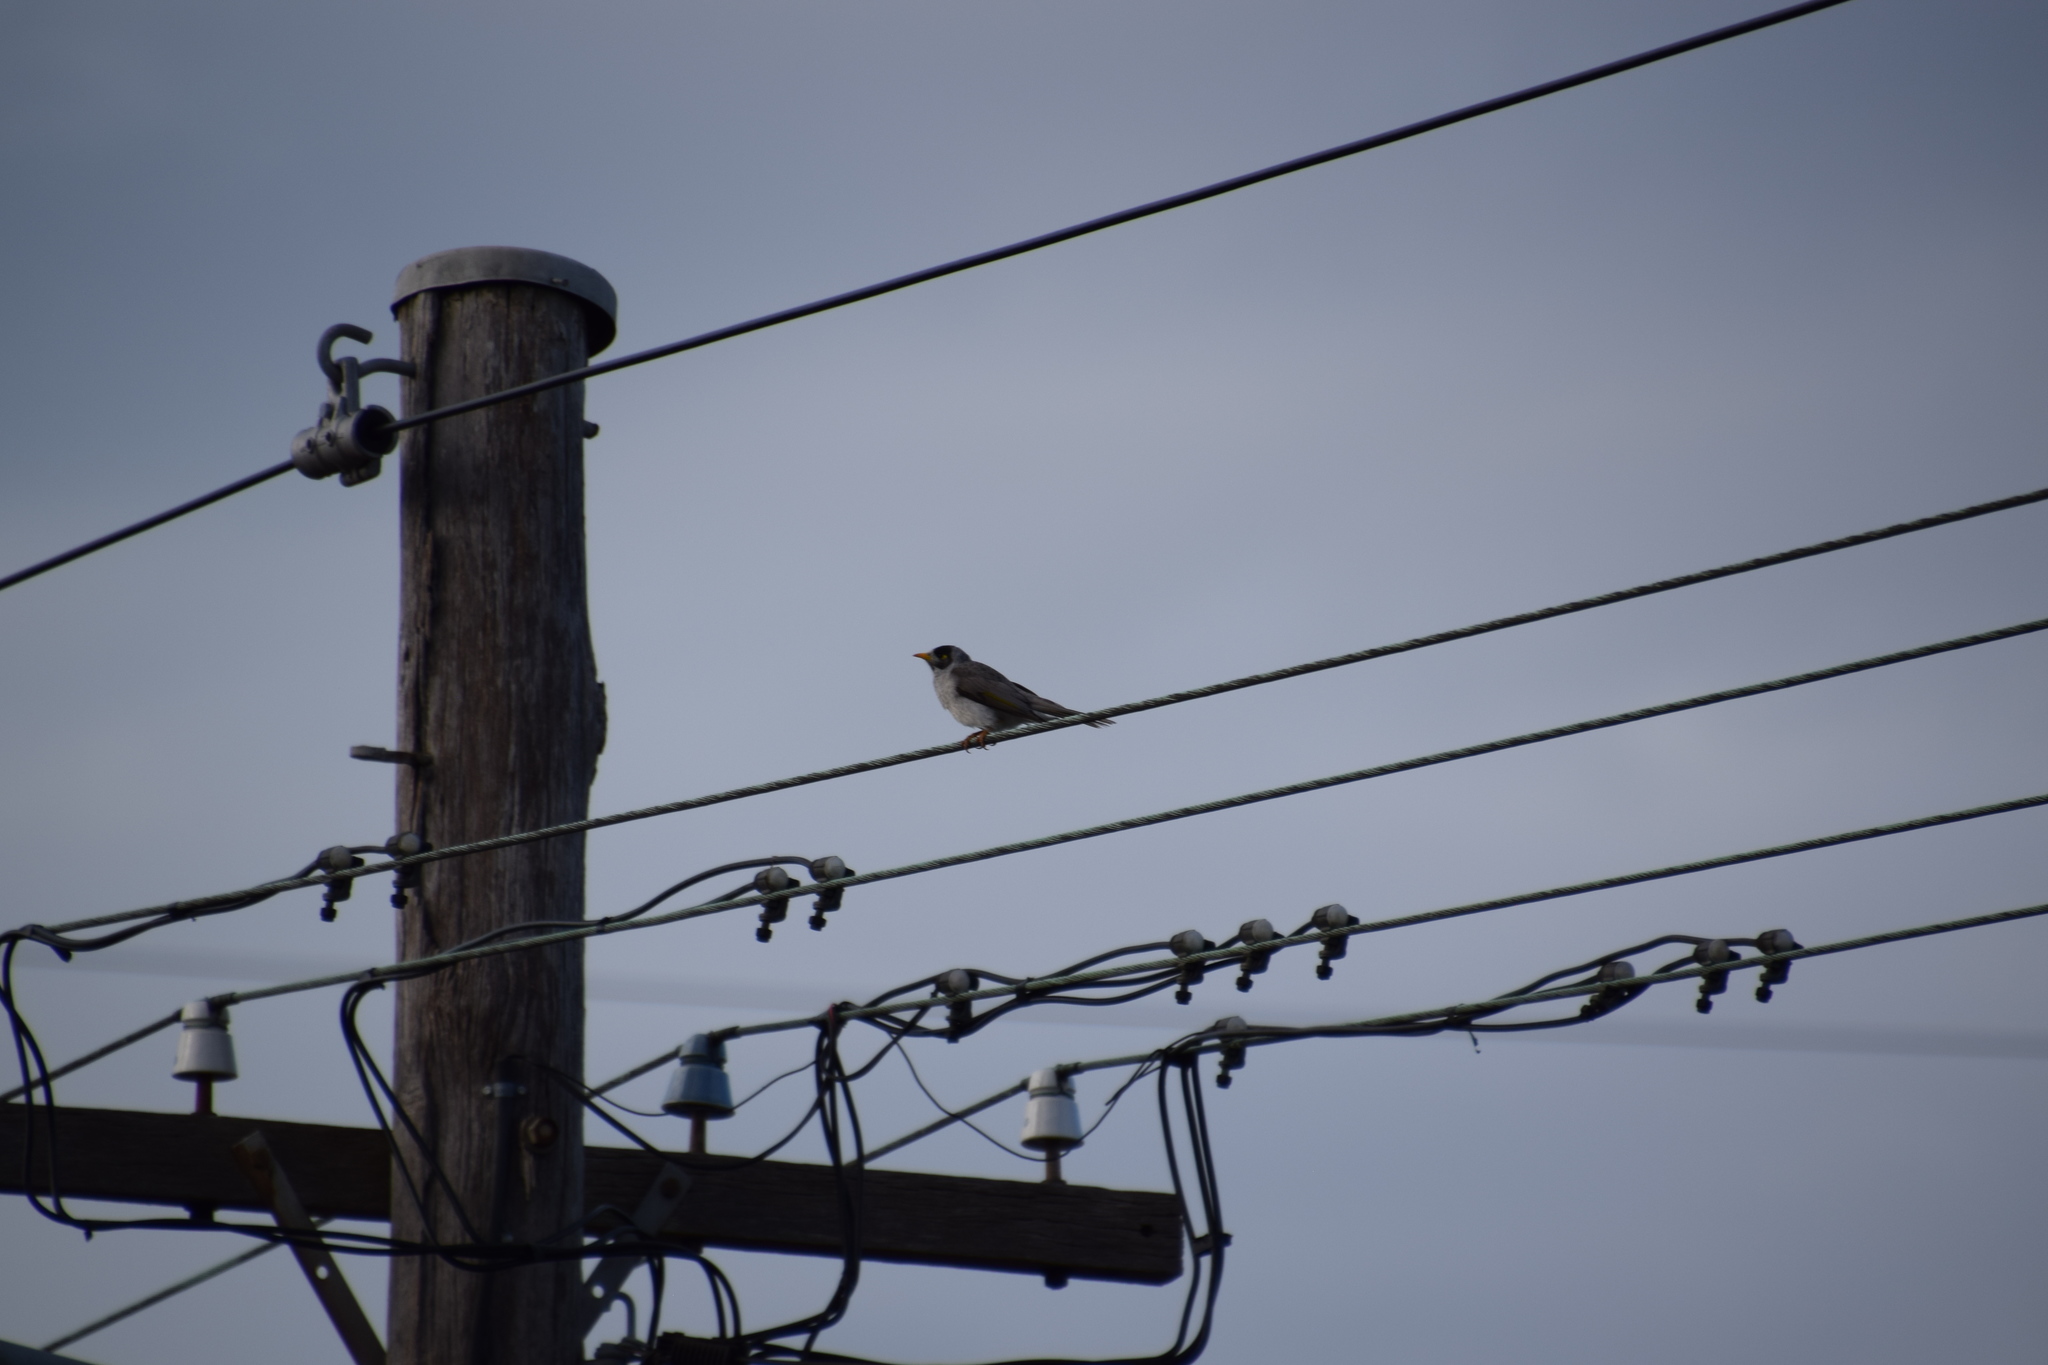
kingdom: Animalia
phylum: Chordata
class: Aves
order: Passeriformes
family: Meliphagidae
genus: Manorina
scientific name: Manorina melanocephala
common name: Noisy miner
